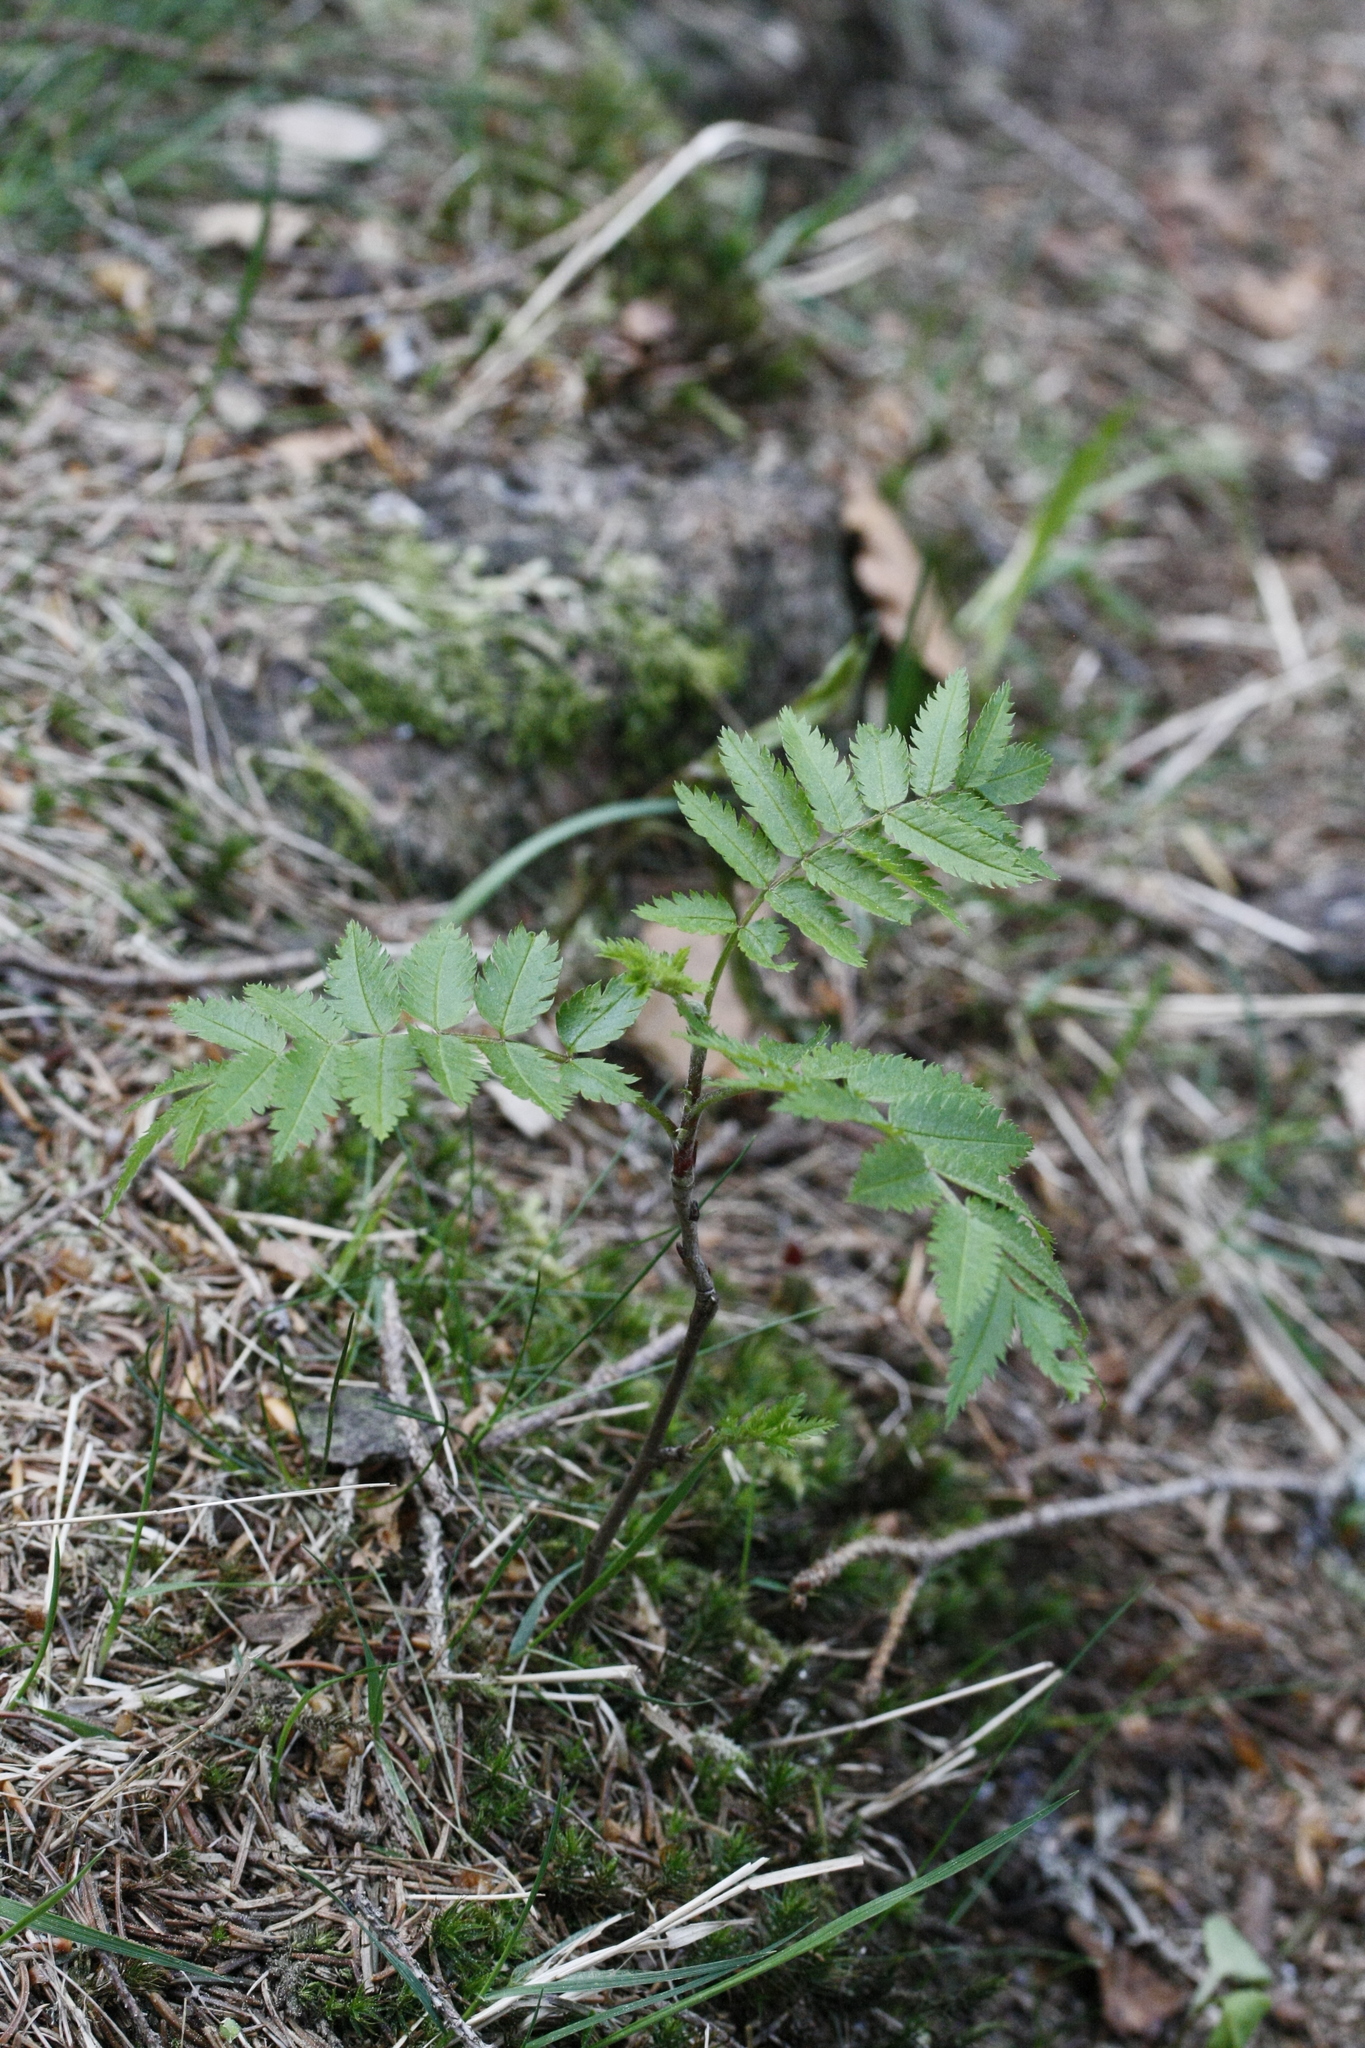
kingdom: Plantae
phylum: Tracheophyta
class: Magnoliopsida
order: Rosales
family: Rosaceae
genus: Sorbus
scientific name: Sorbus aucuparia
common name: Rowan
